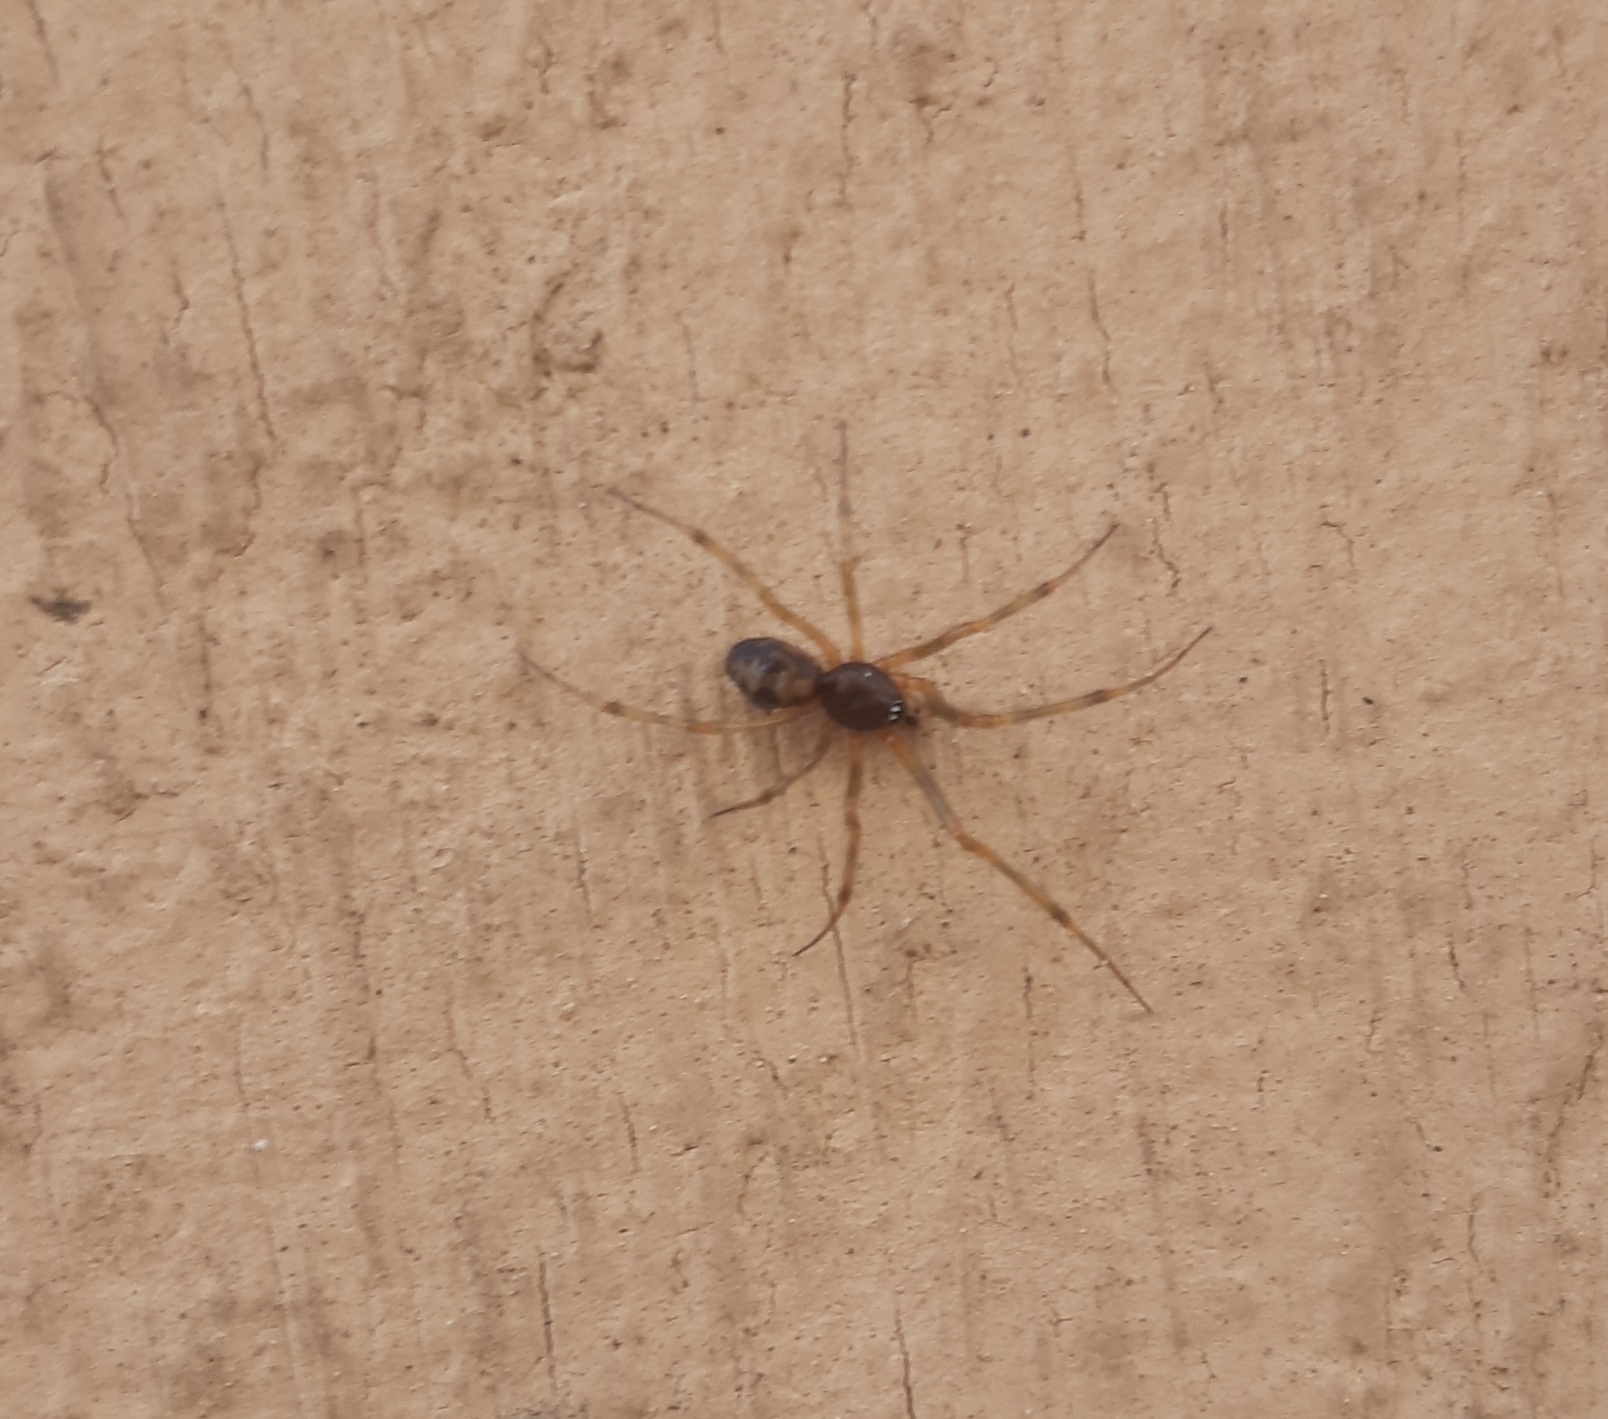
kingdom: Animalia
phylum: Arthropoda
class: Arachnida
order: Araneae
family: Theridiidae
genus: Steatoda
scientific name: Steatoda grossa
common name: False black widow
